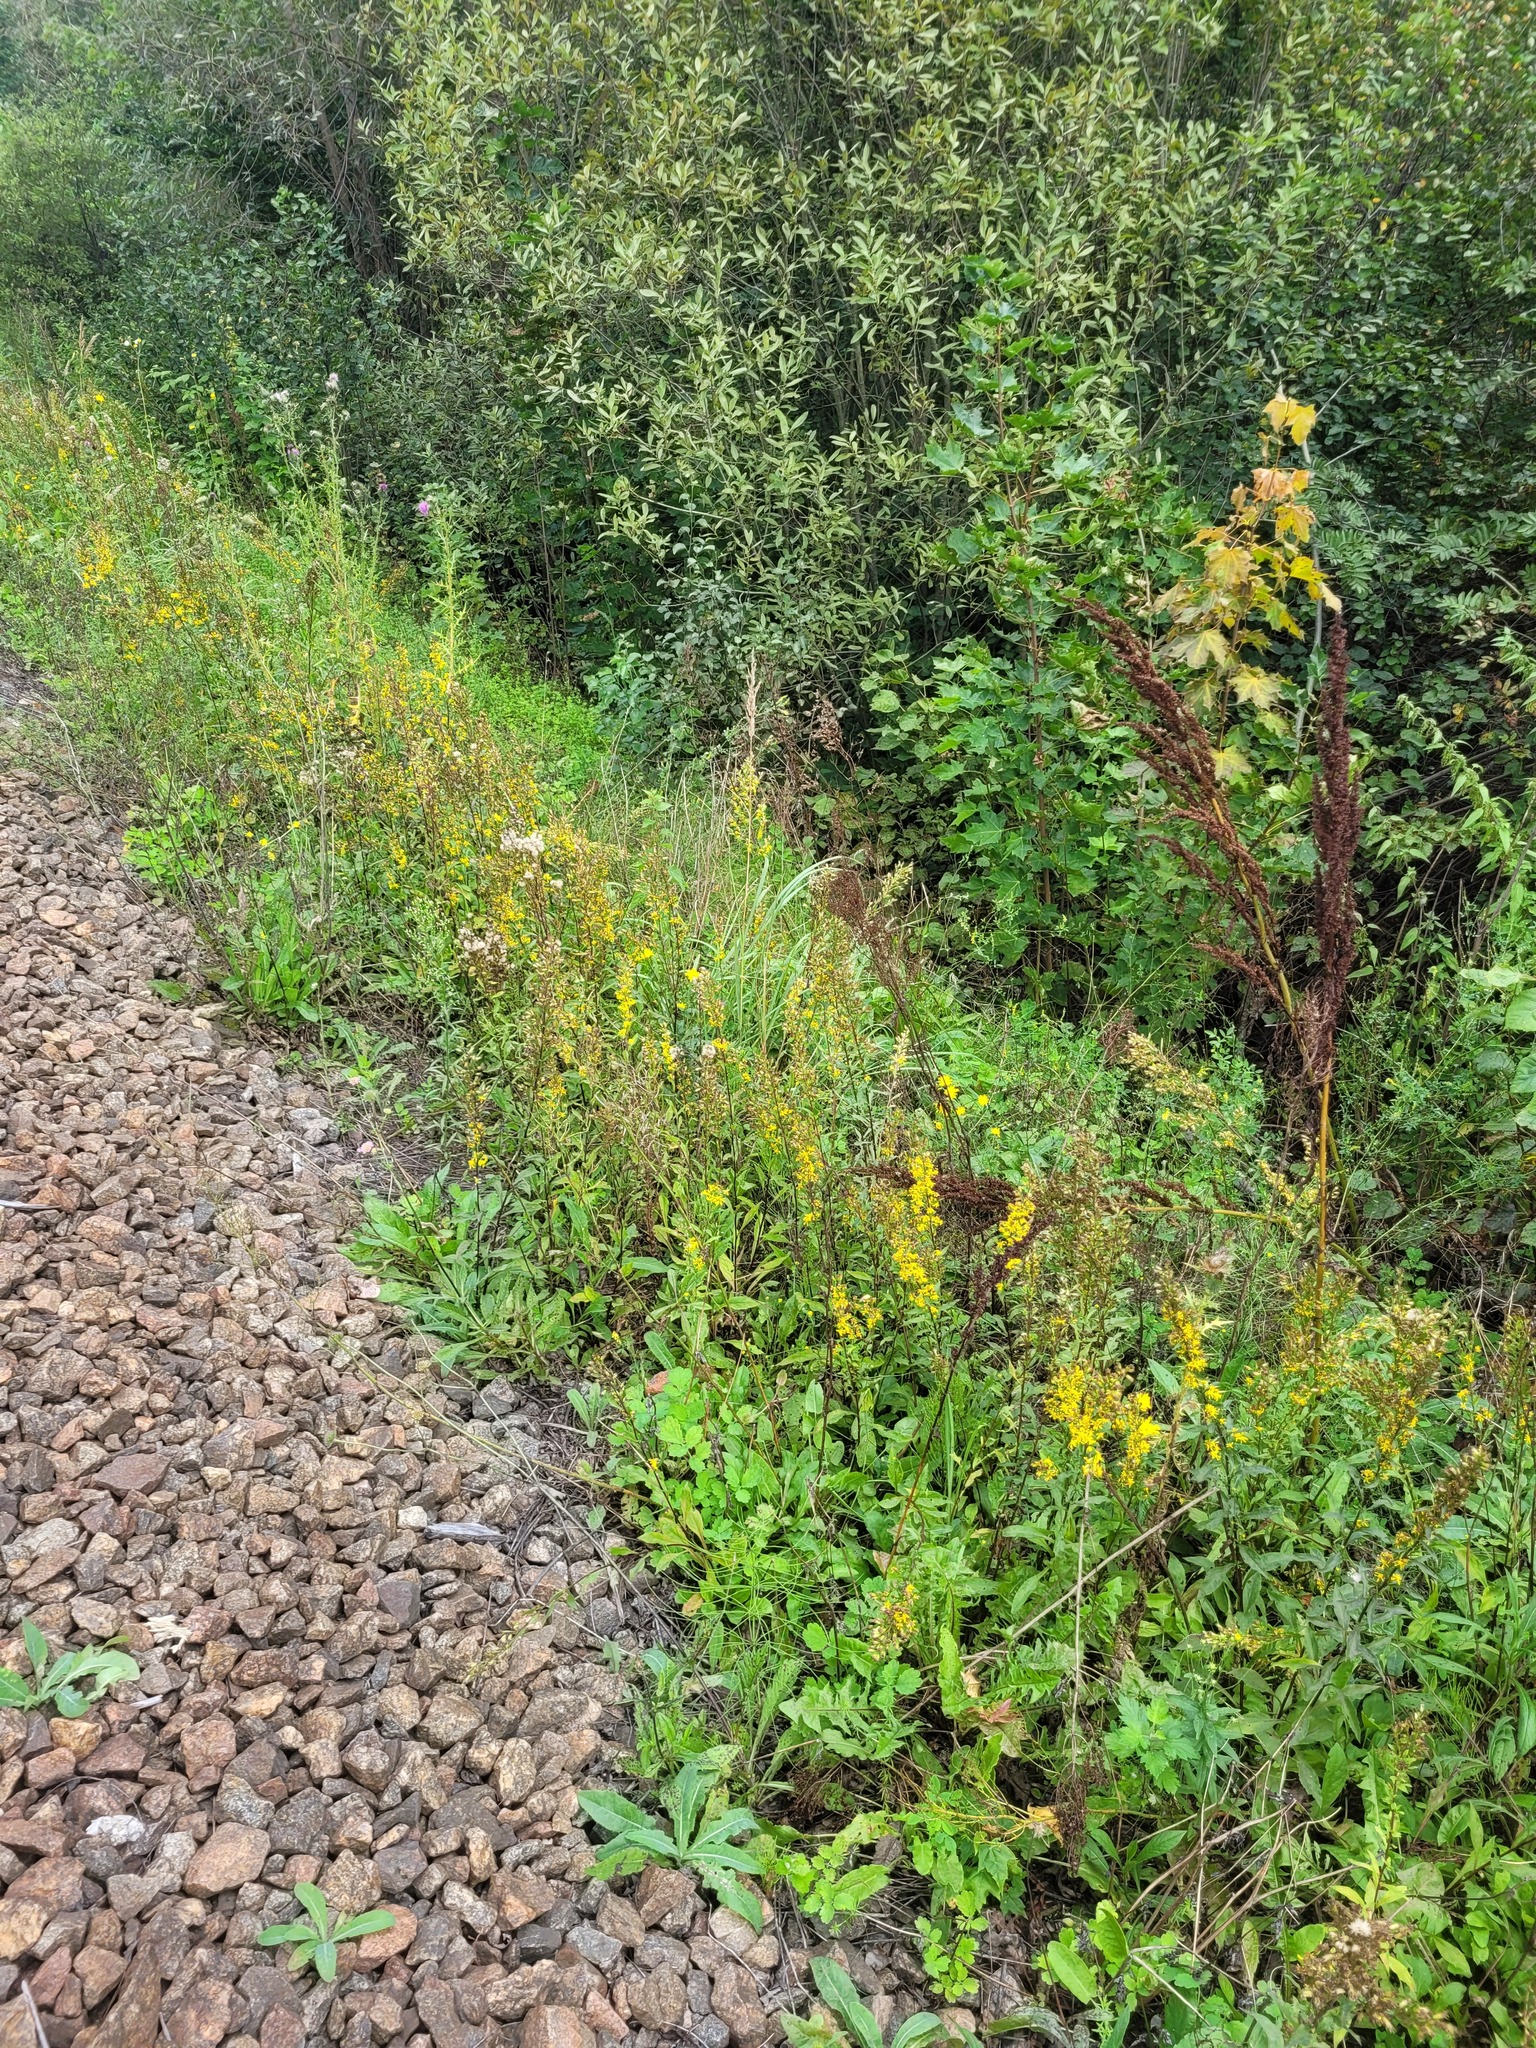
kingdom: Plantae
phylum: Tracheophyta
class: Magnoliopsida
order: Asterales
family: Asteraceae
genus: Solidago
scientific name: Solidago virgaurea
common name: Goldenrod
